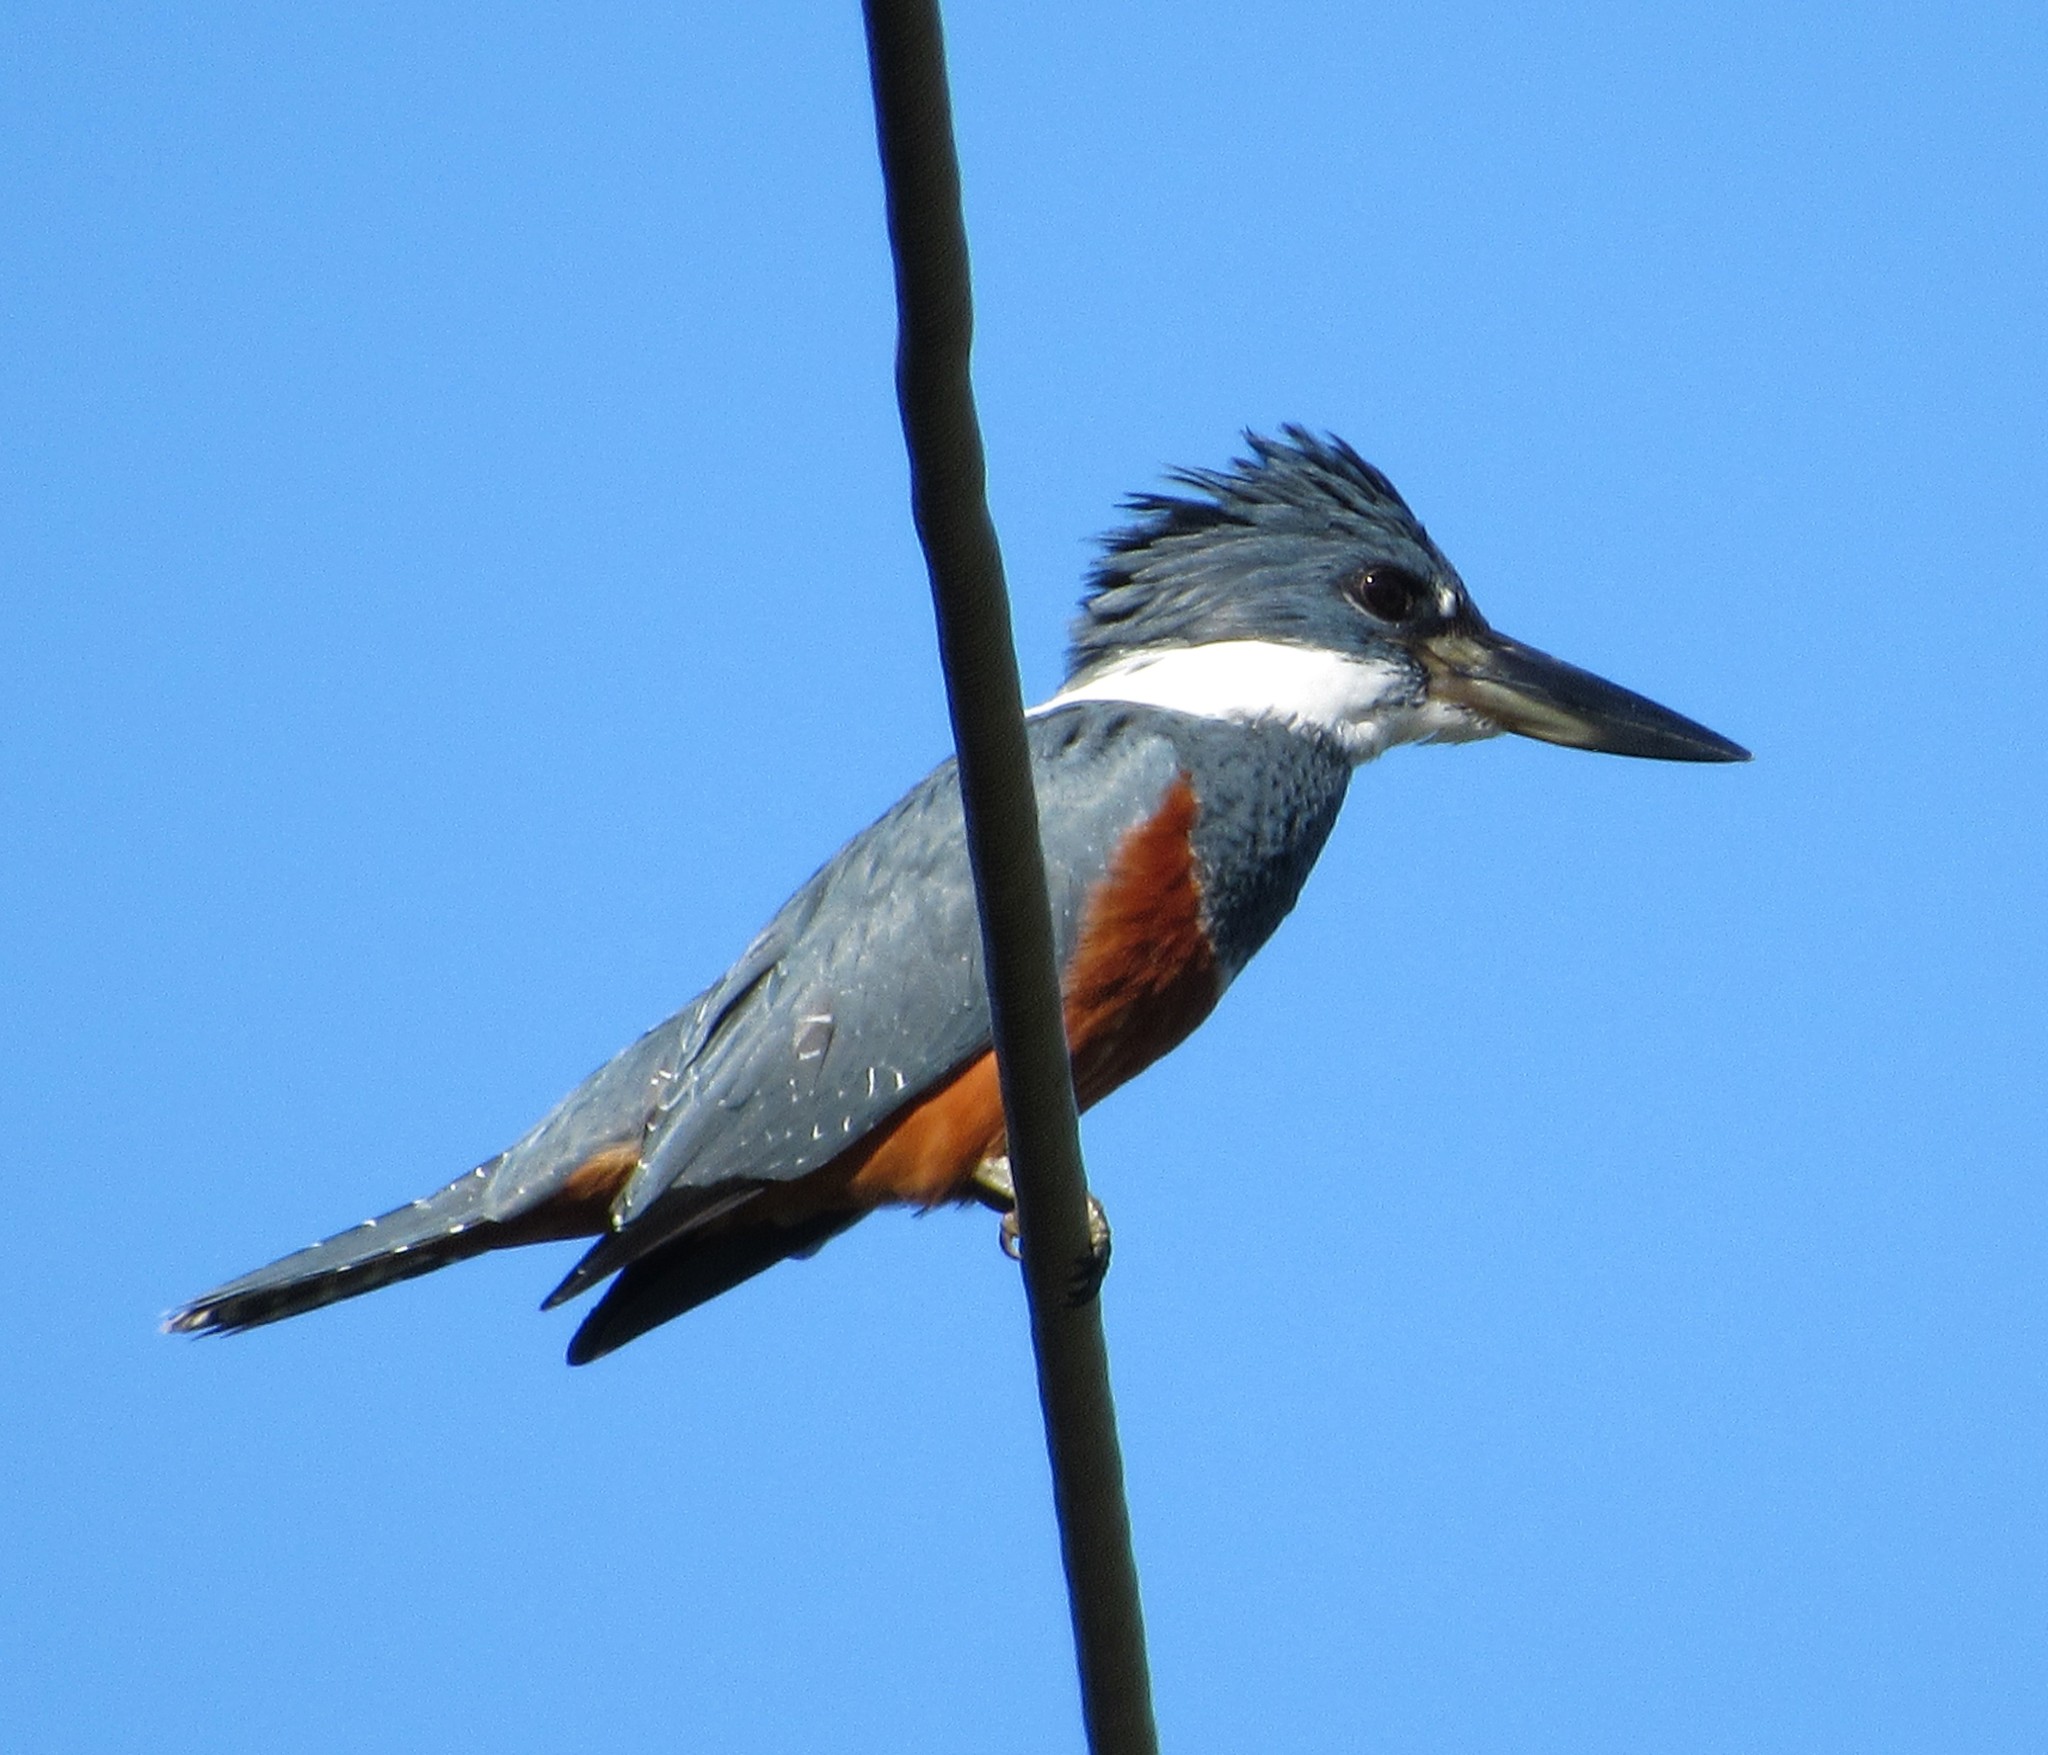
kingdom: Animalia
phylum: Chordata
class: Aves
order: Coraciiformes
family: Alcedinidae
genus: Megaceryle
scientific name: Megaceryle torquata
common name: Ringed kingfisher
